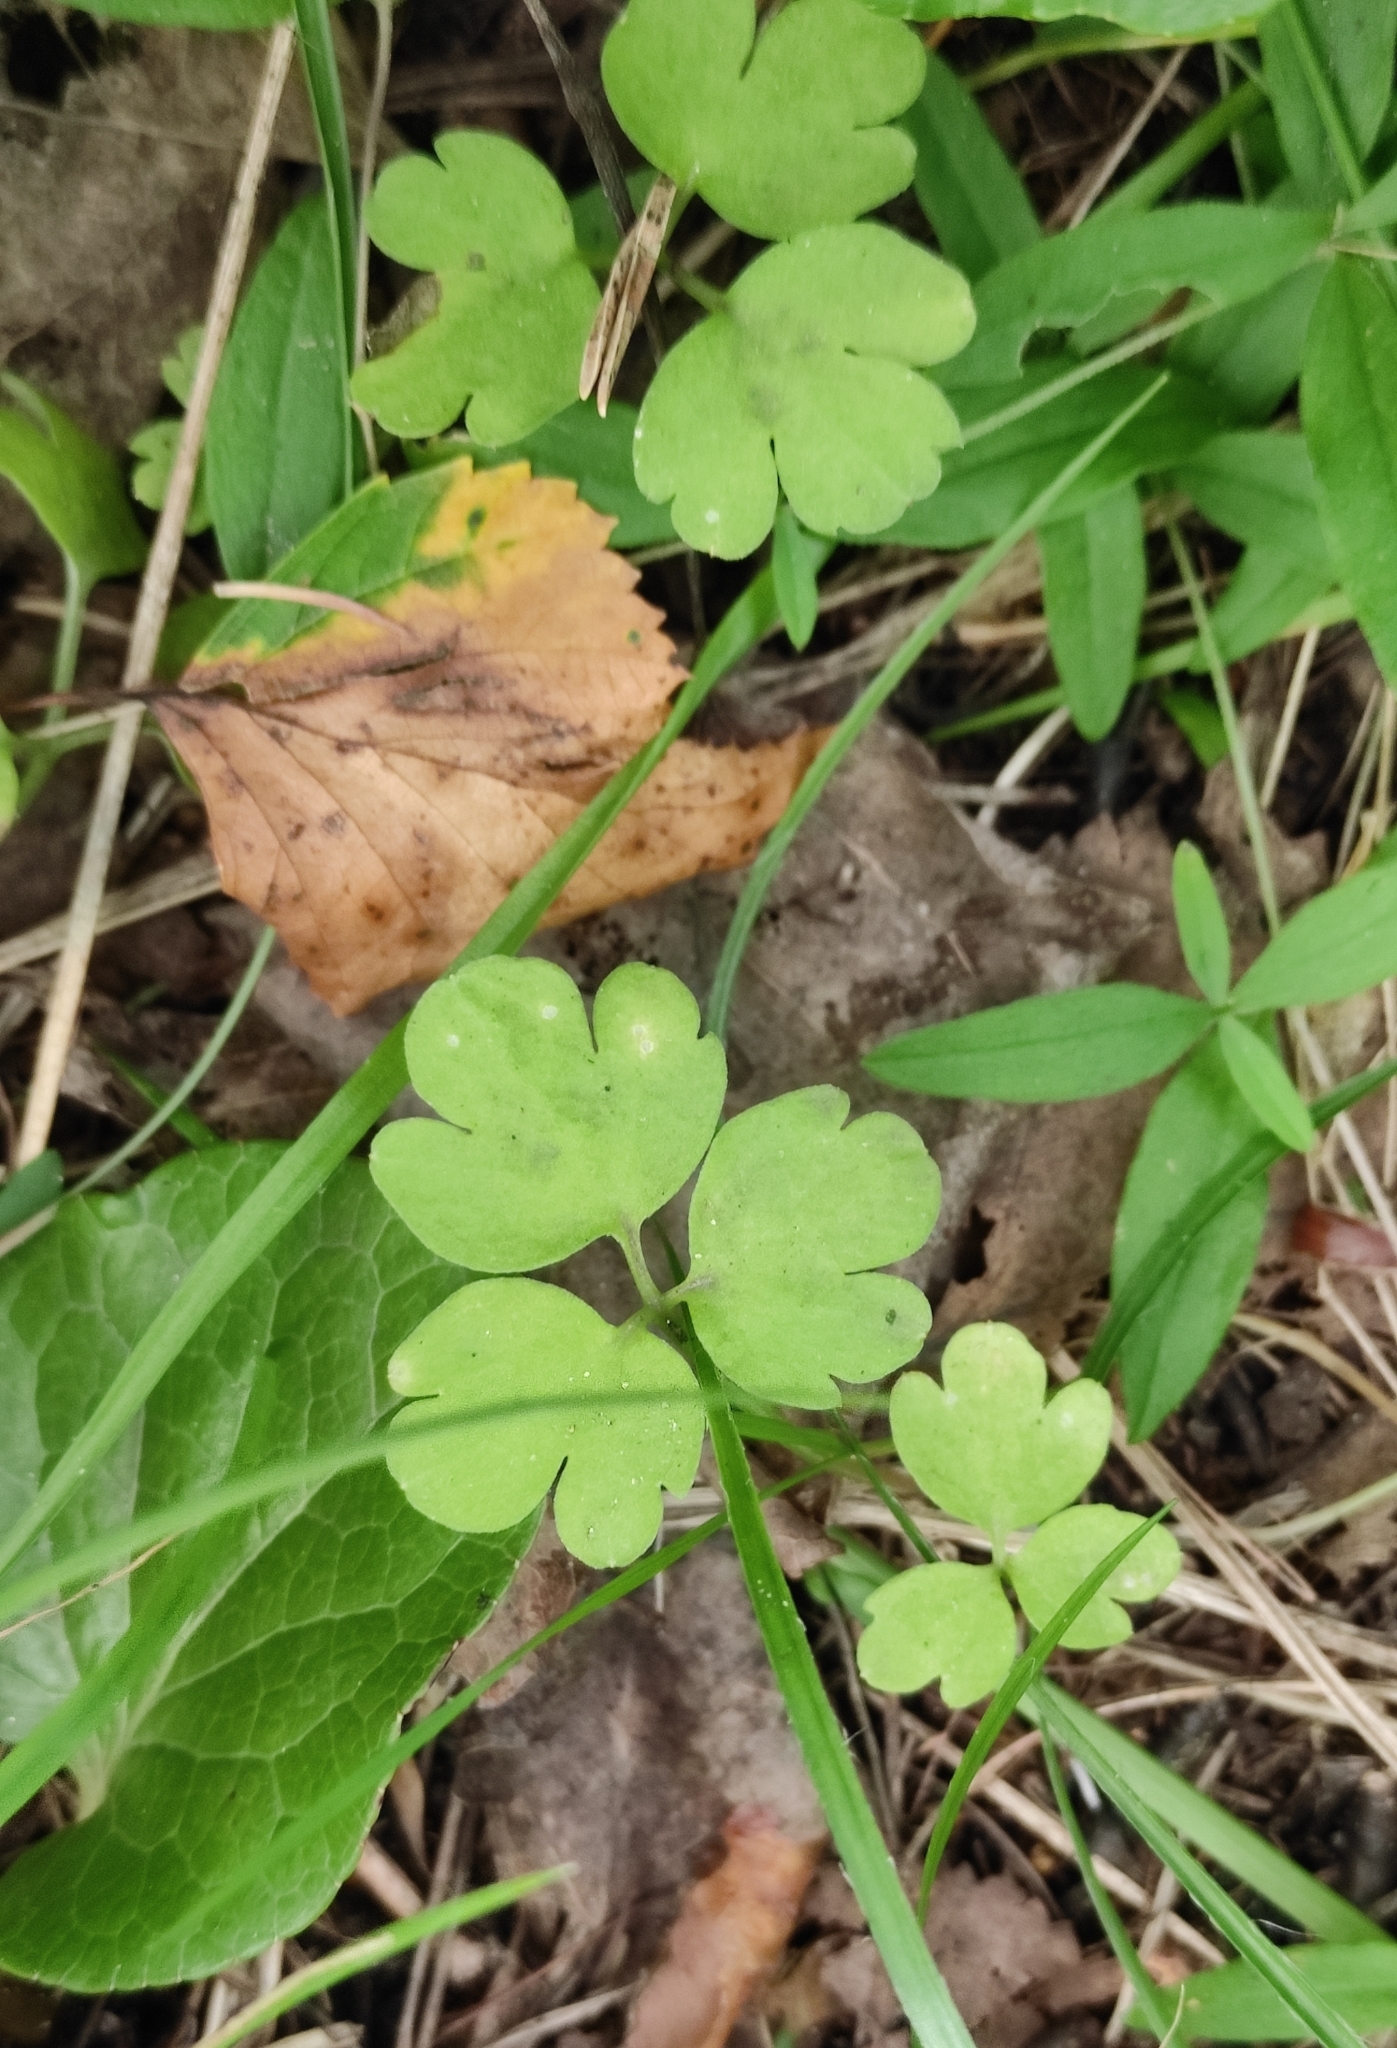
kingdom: Plantae
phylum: Tracheophyta
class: Magnoliopsida
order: Dipsacales
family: Viburnaceae
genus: Adoxa
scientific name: Adoxa moschatellina
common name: Moschatel
